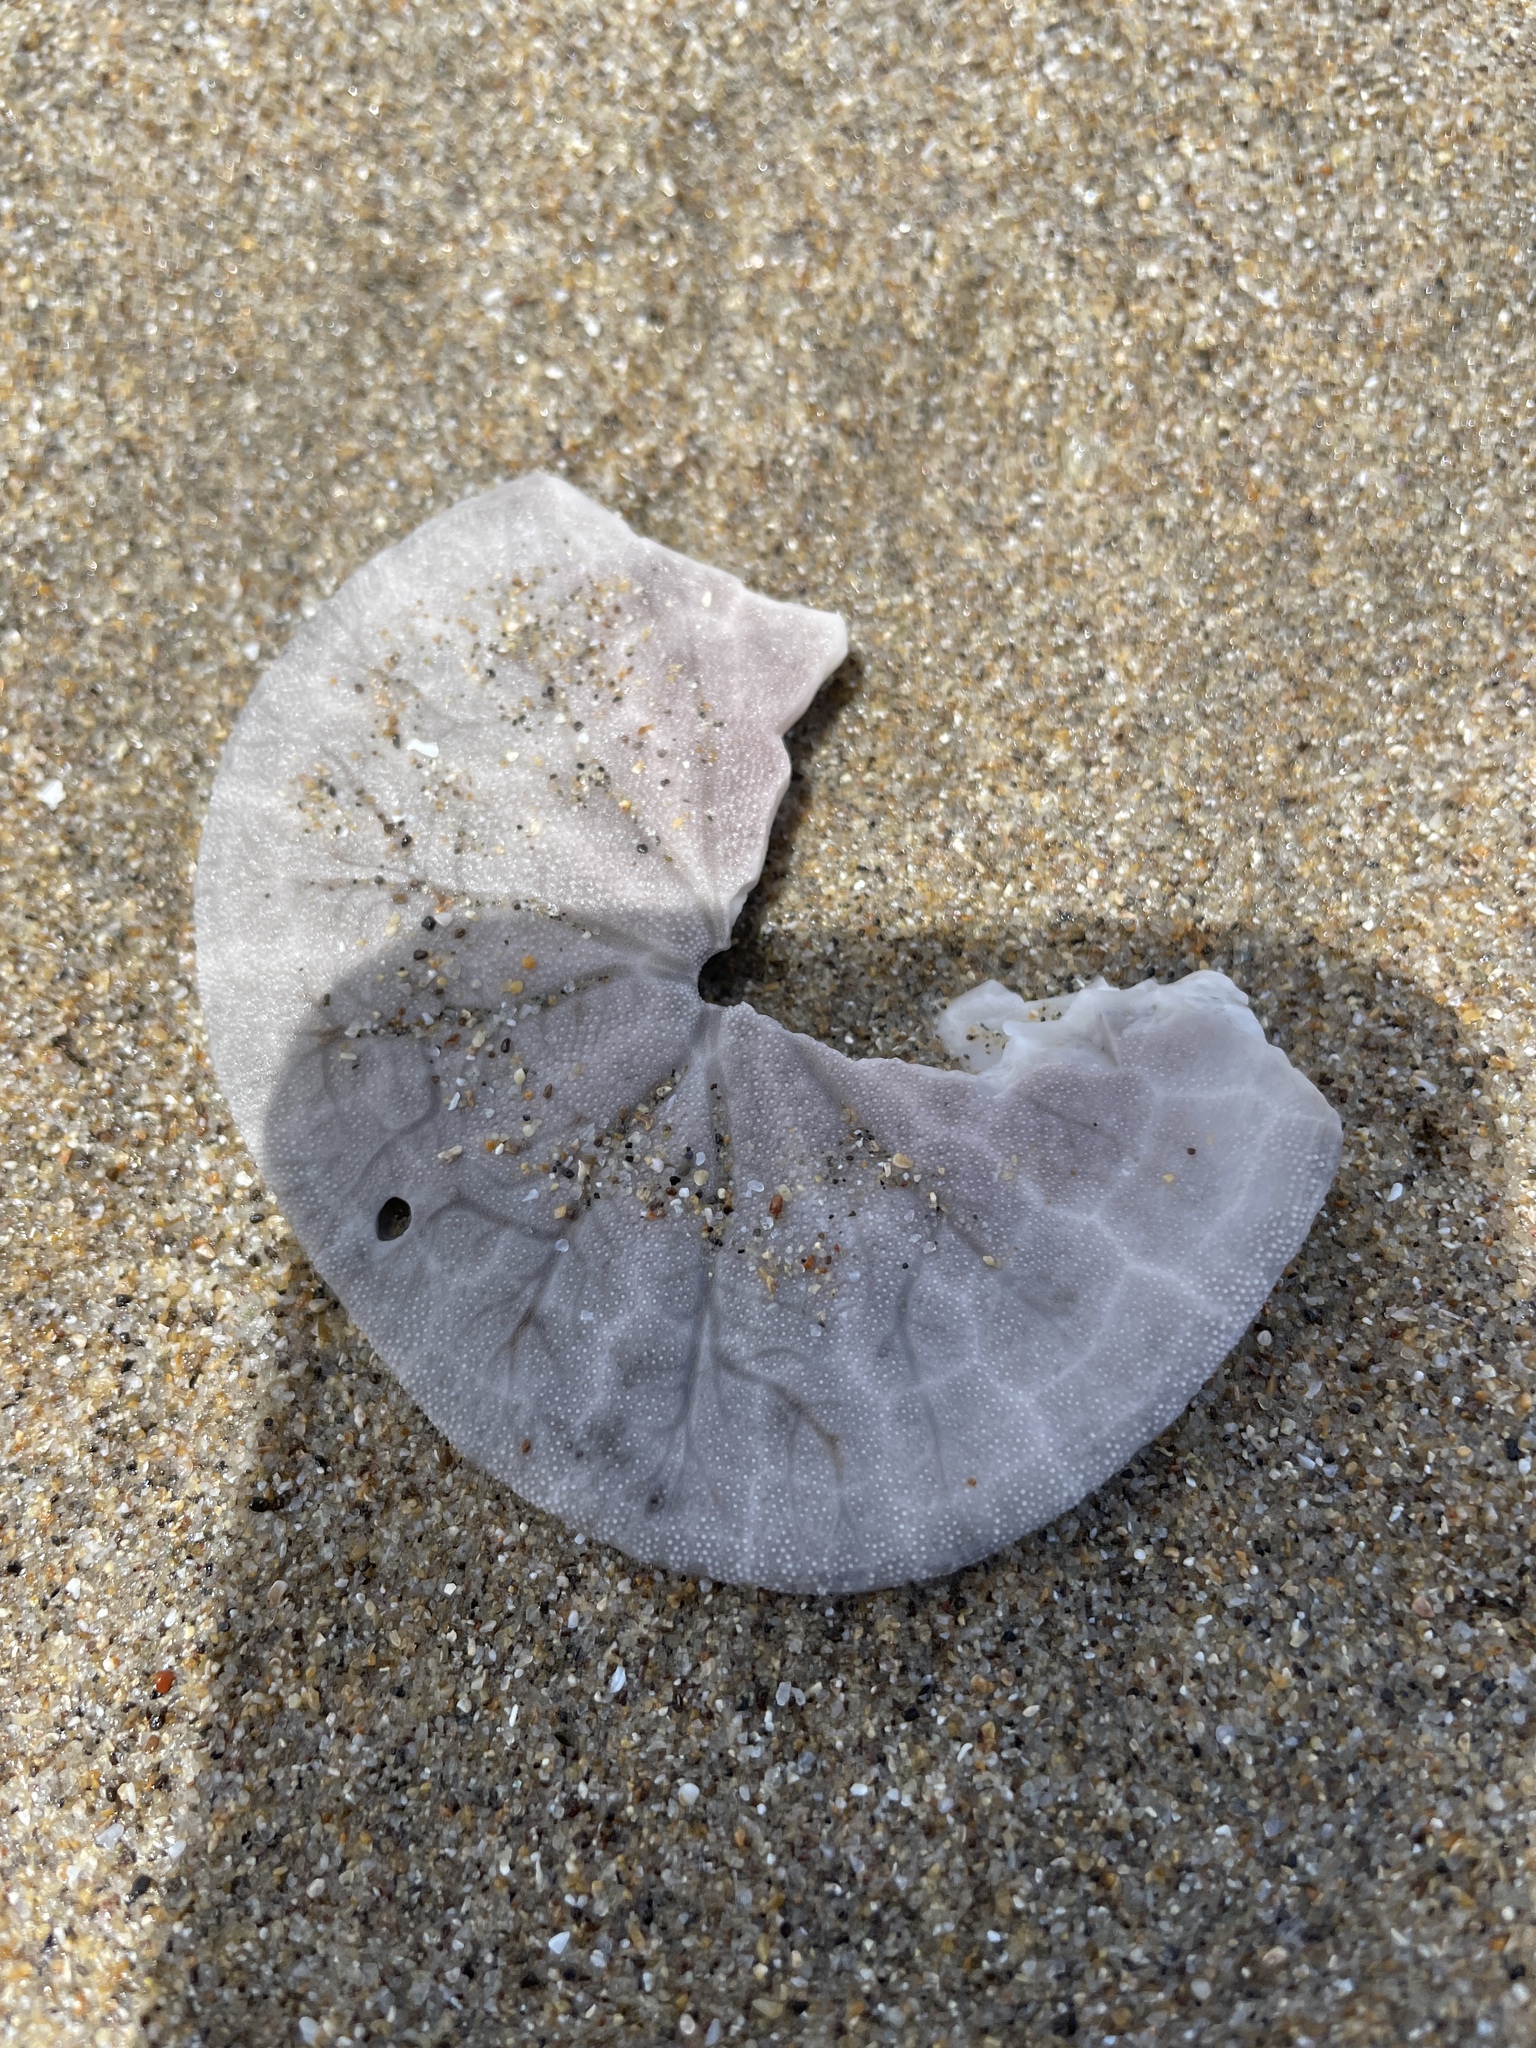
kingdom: Animalia
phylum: Echinodermata
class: Echinoidea
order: Echinolampadacea
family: Dendrasteridae
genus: Dendraster
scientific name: Dendraster excentricus
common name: Eccentric sand dollar sea urchin
